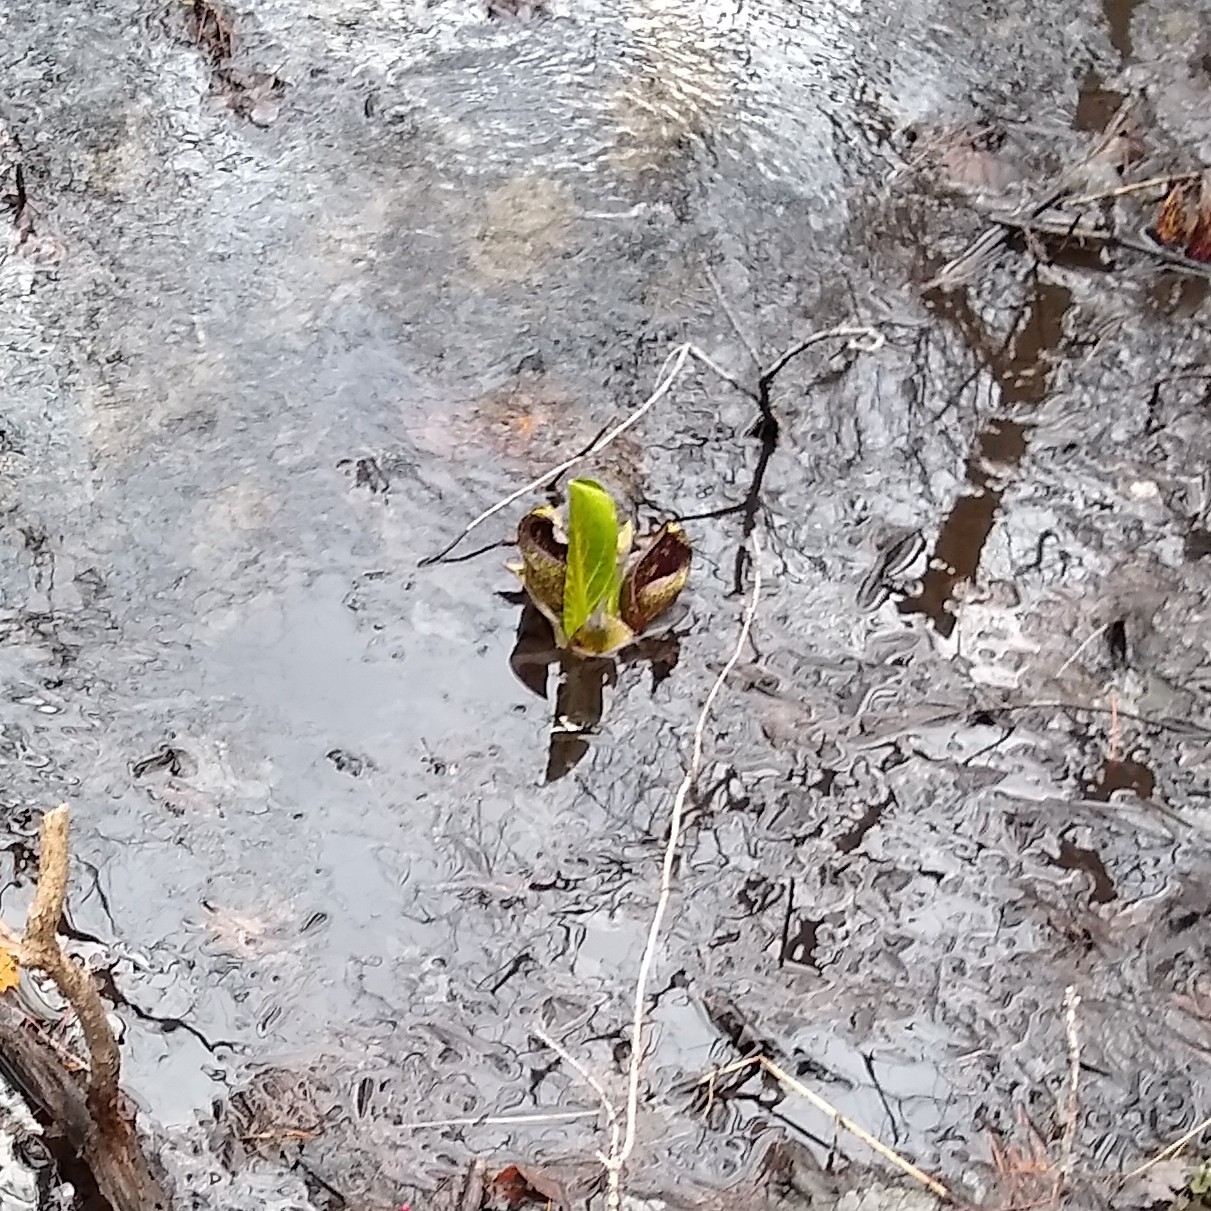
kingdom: Plantae
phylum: Tracheophyta
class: Liliopsida
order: Alismatales
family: Araceae
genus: Symplocarpus
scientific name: Symplocarpus foetidus
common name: Eastern skunk cabbage
